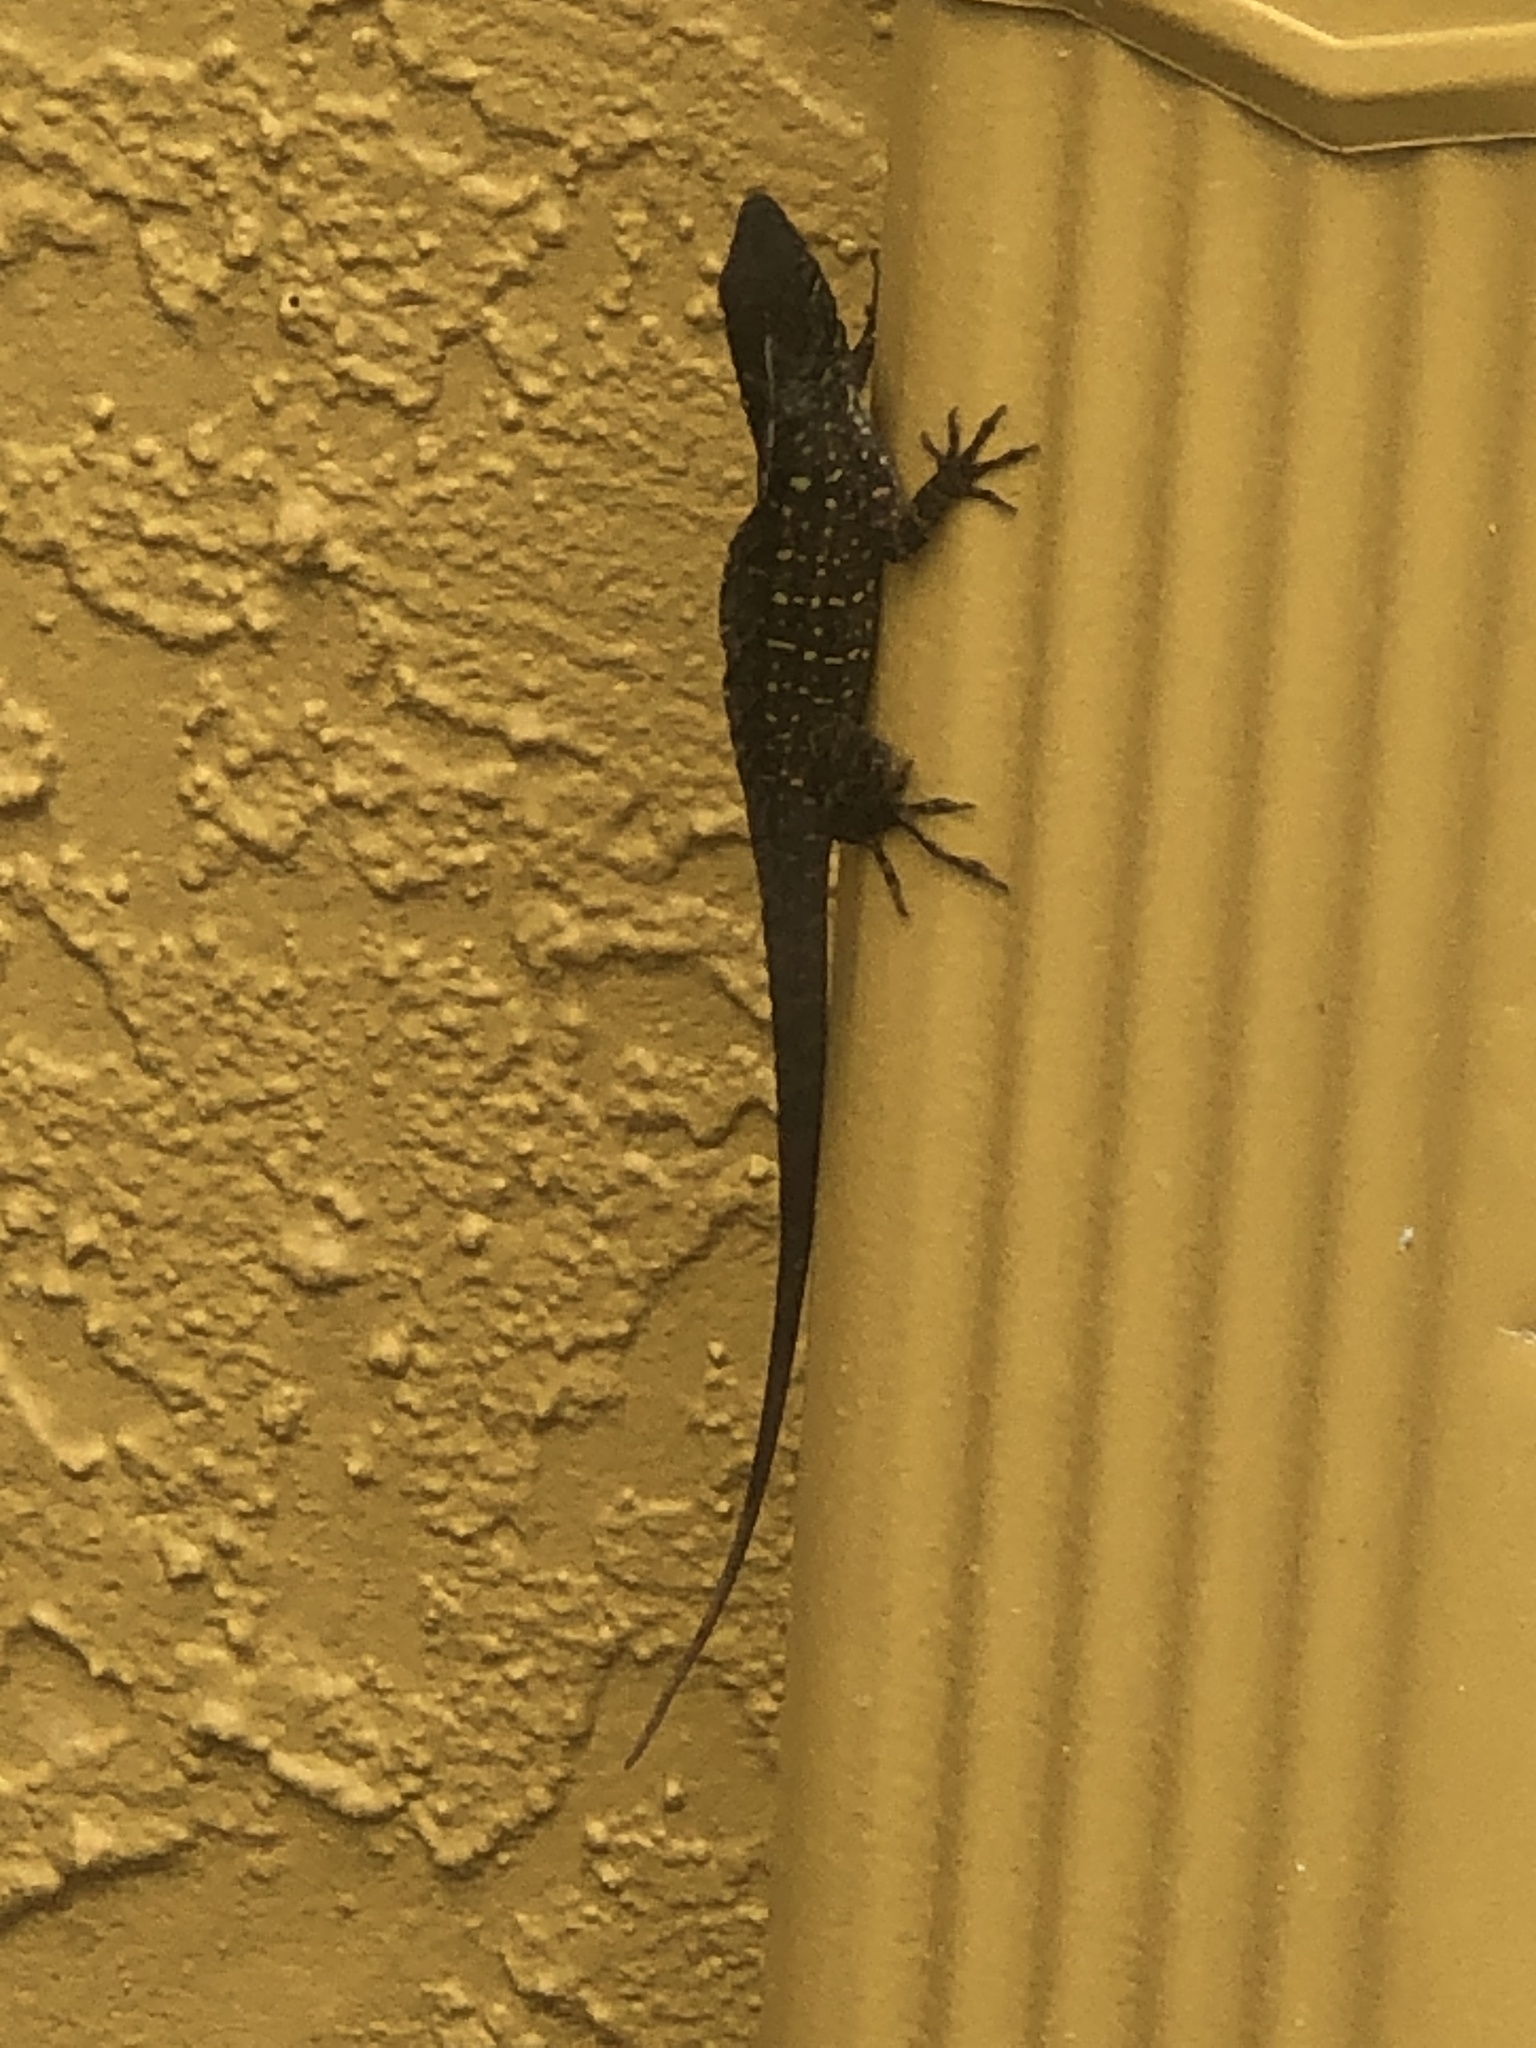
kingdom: Animalia
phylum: Chordata
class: Squamata
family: Dactyloidae
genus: Anolis
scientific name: Anolis sagrei
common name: Brown anole
